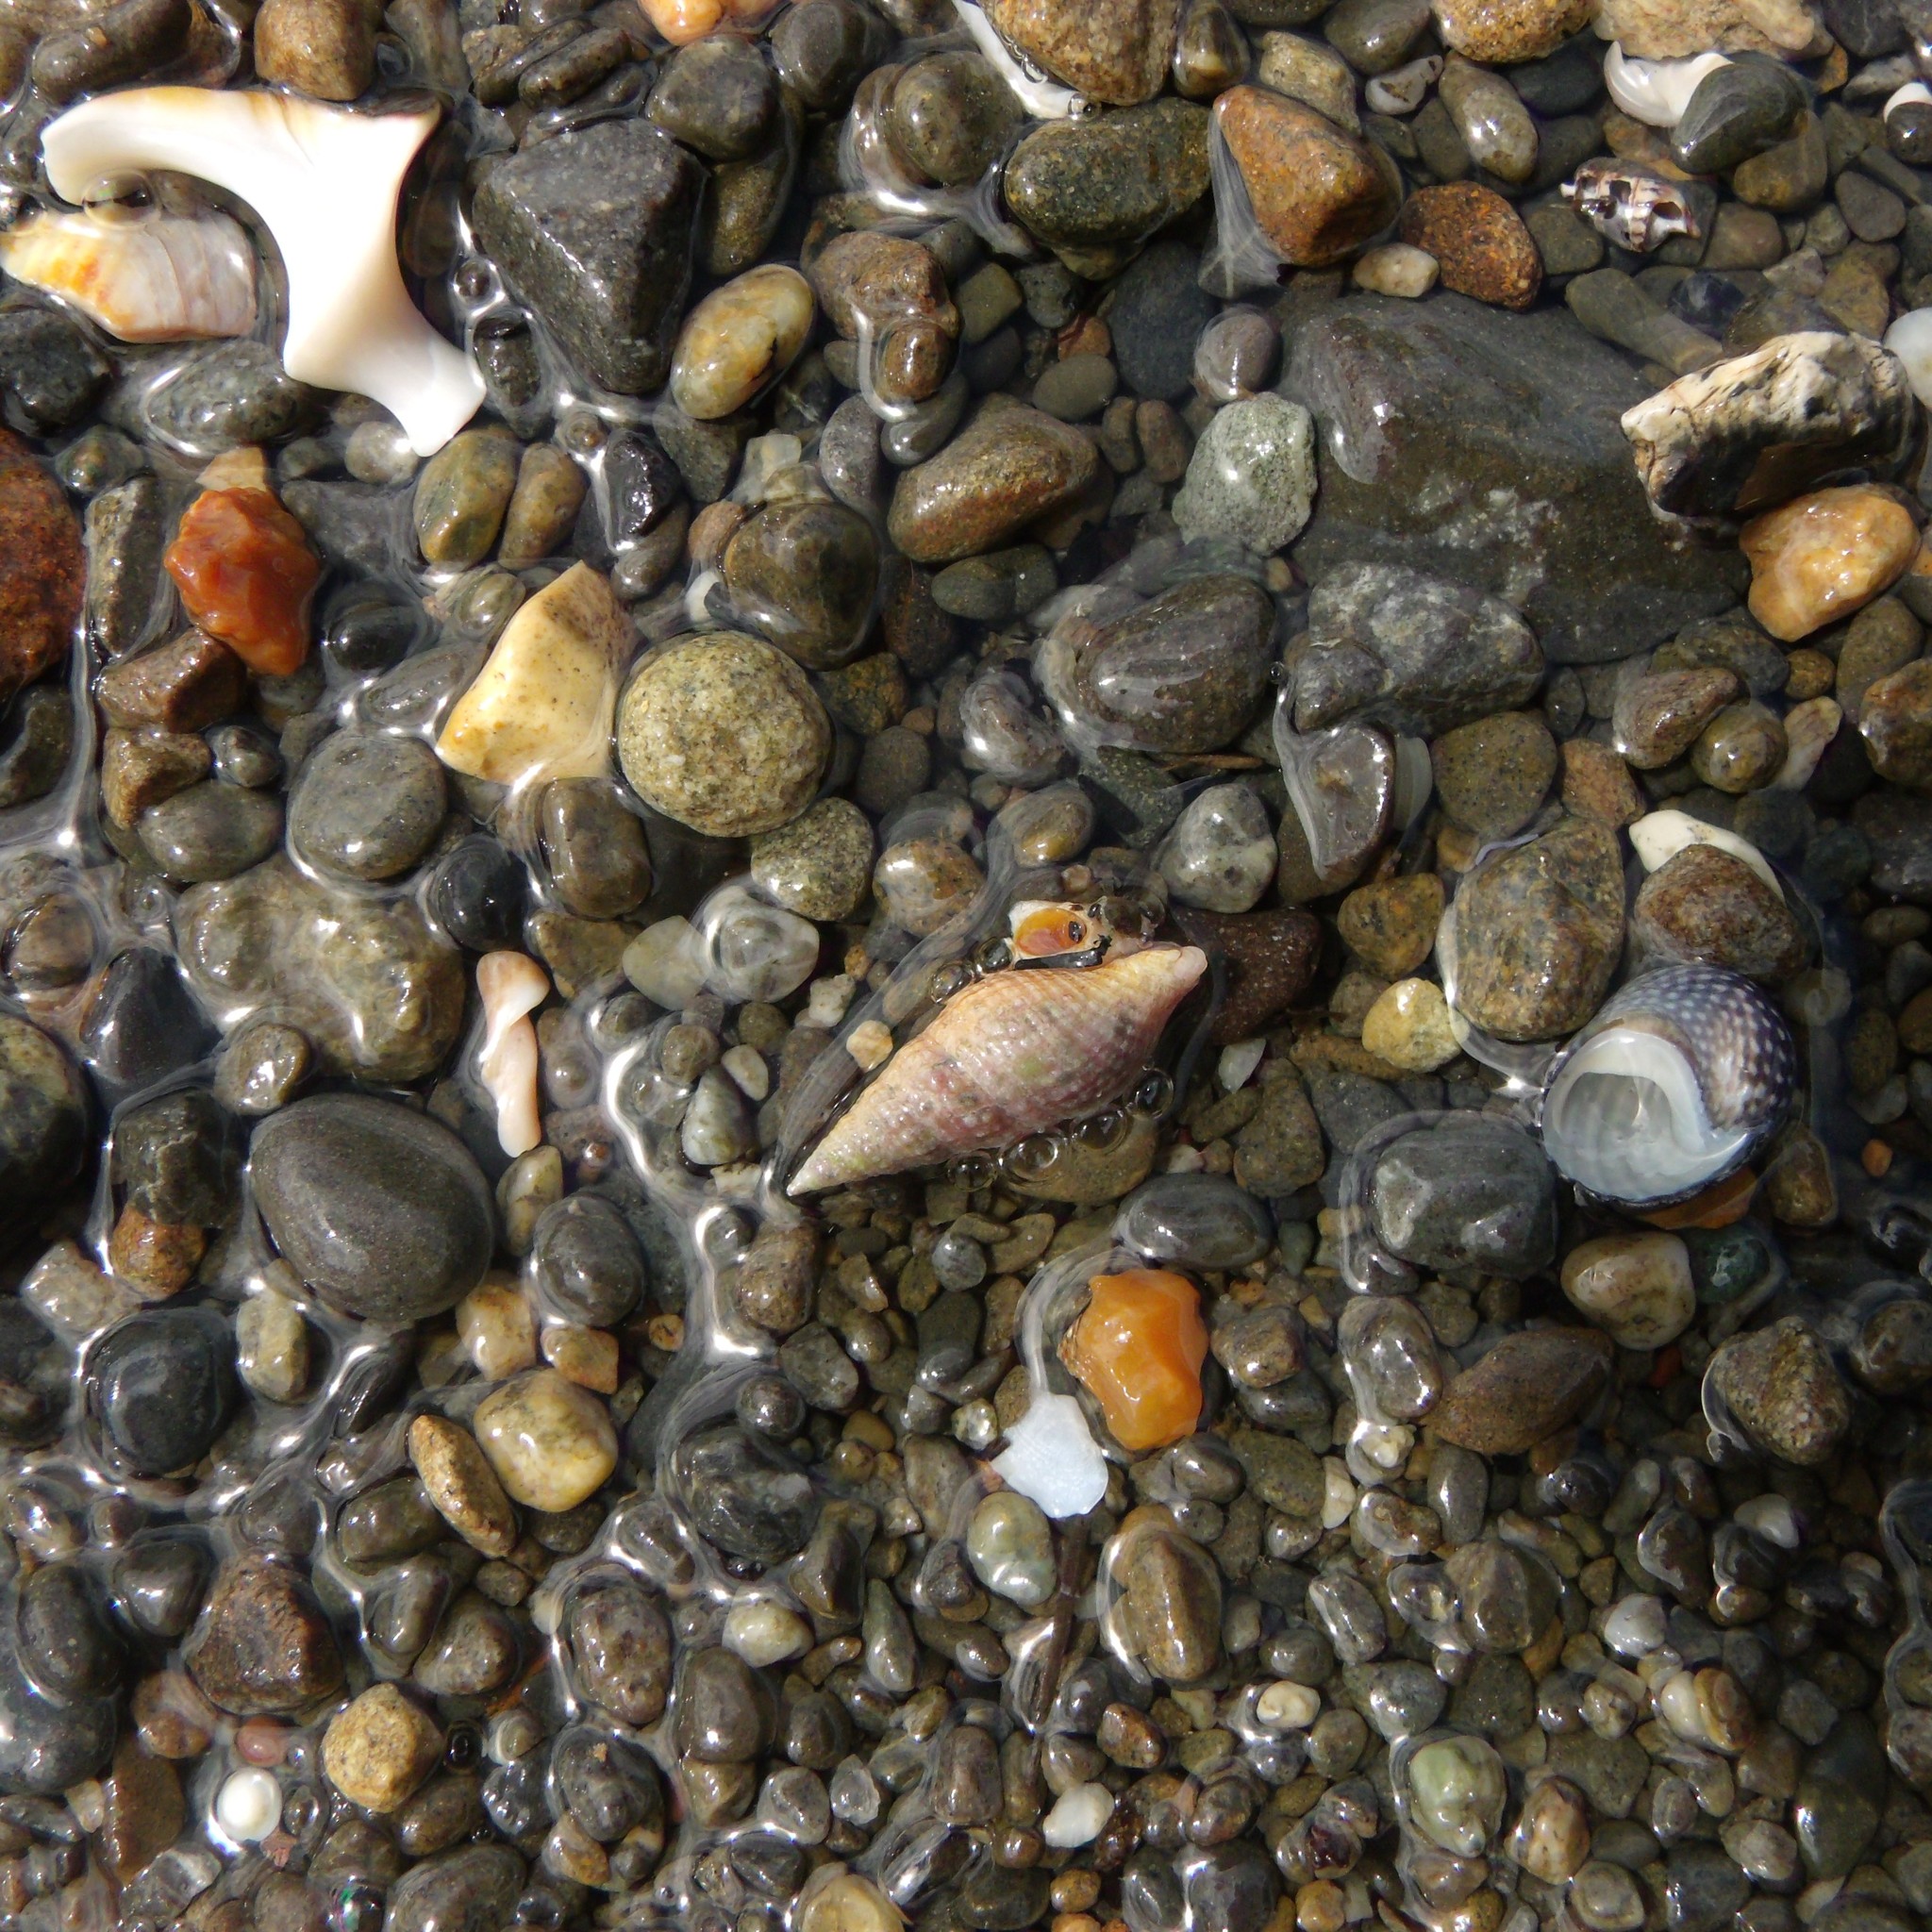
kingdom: Animalia
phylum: Mollusca
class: Gastropoda
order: Neogastropoda
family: Borsoniidae
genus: Phenatoma
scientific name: Phenatoma roseum
